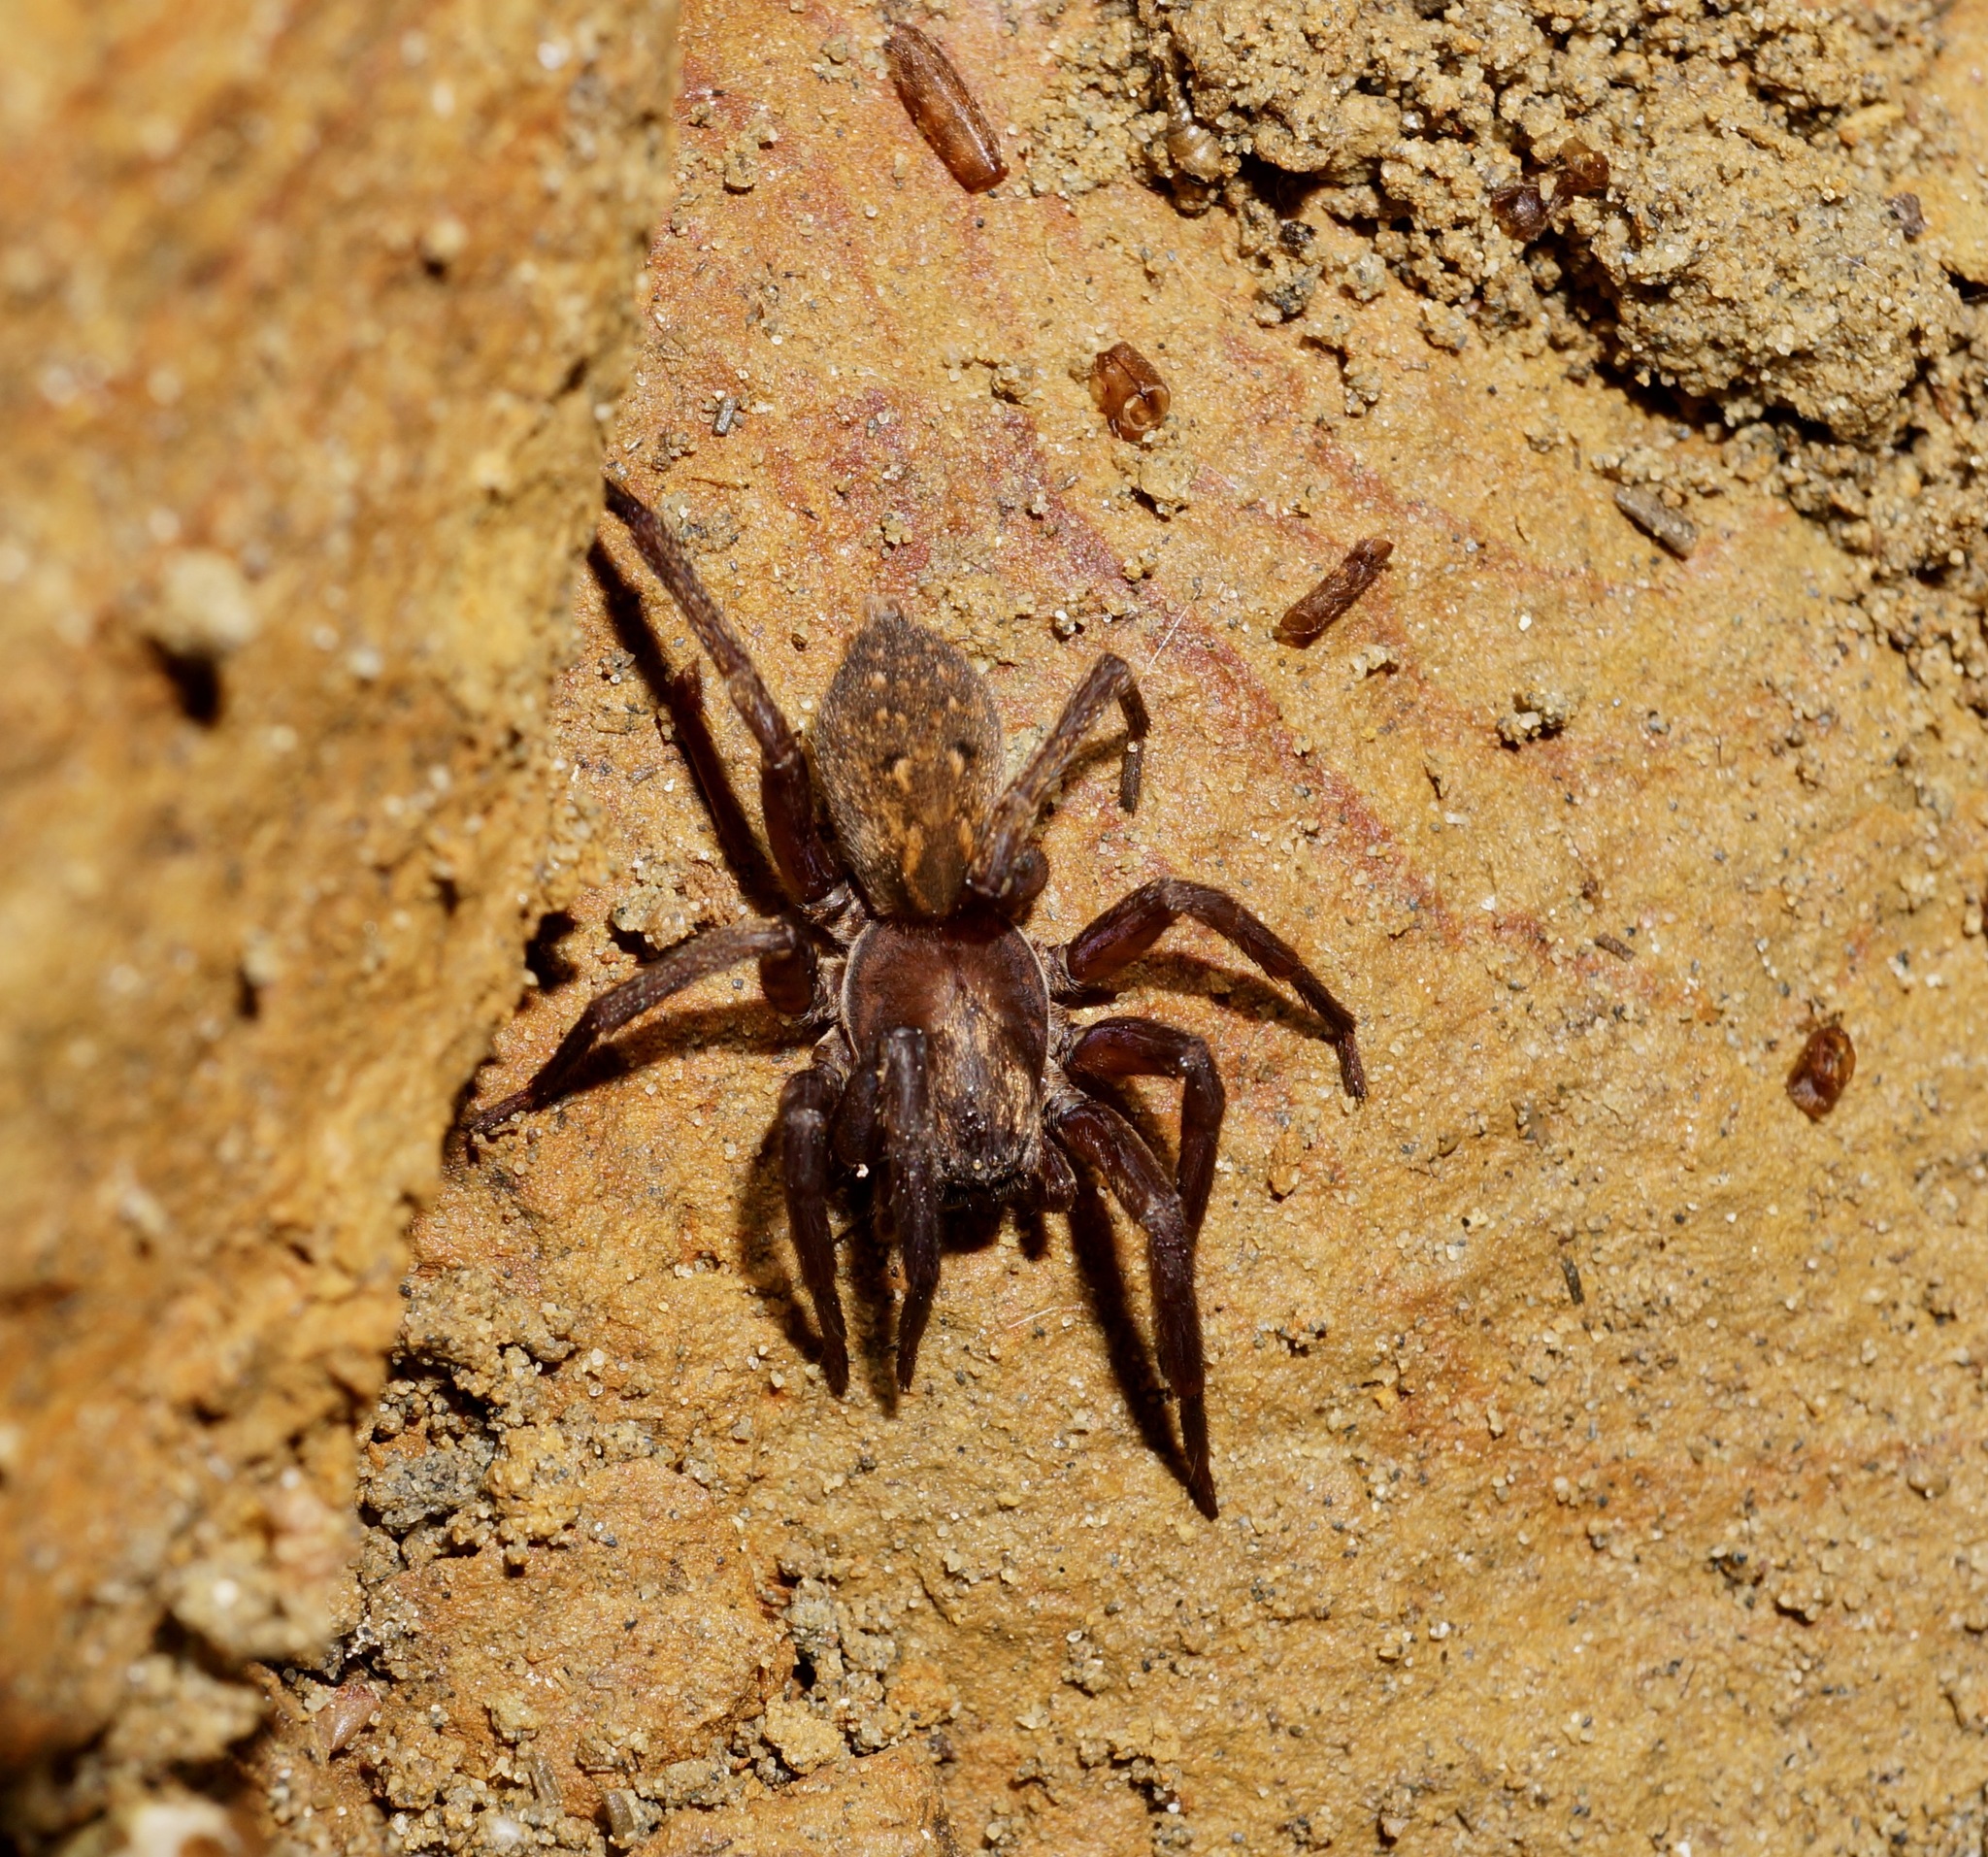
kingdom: Animalia
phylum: Arthropoda
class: Arachnida
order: Araneae
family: Zoropsidae
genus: Uliodon
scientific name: Uliodon albopunctatus
